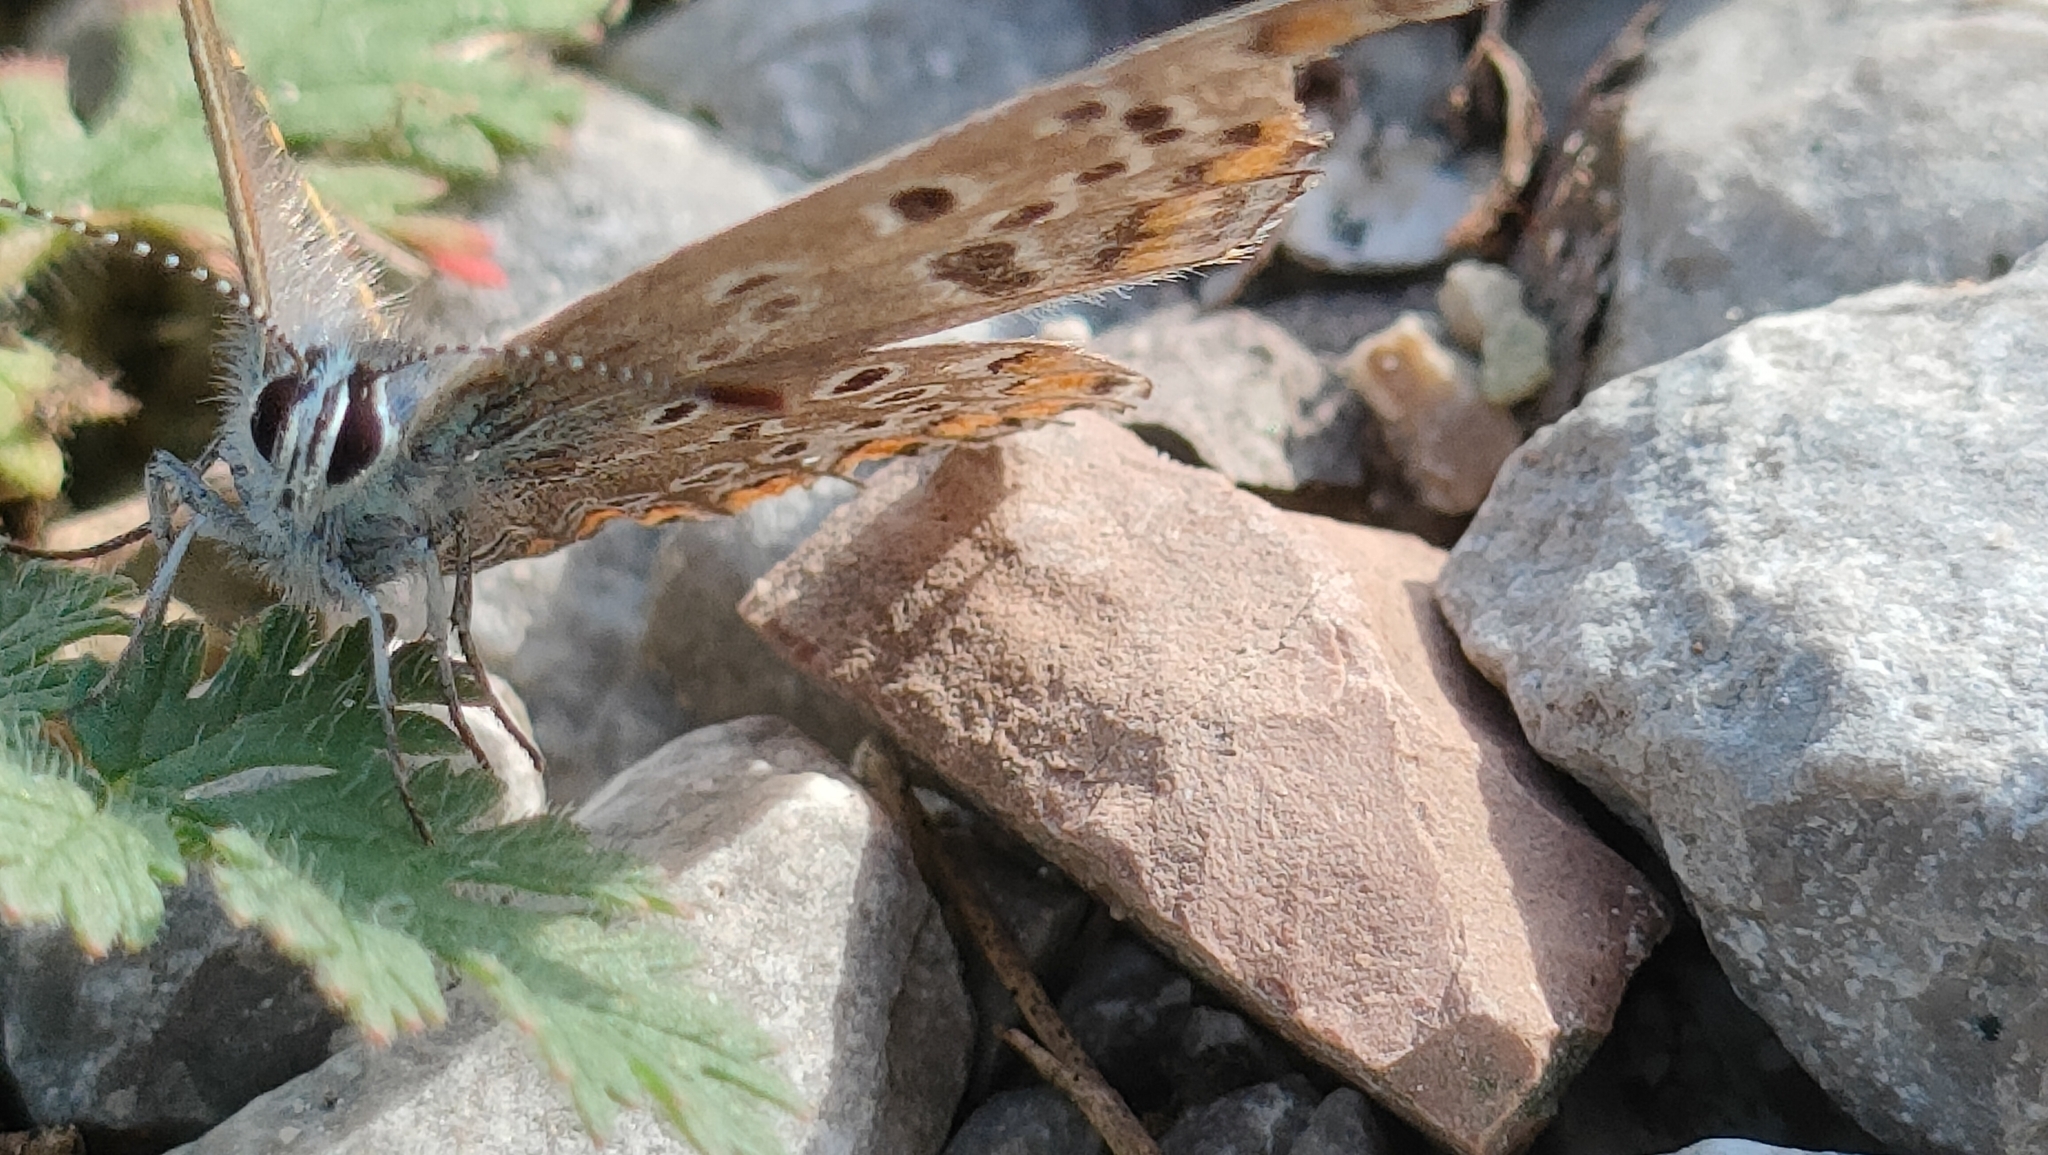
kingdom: Animalia
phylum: Arthropoda
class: Insecta
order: Lepidoptera
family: Lycaenidae
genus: Polyommatus
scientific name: Polyommatus icarus
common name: Common blue
